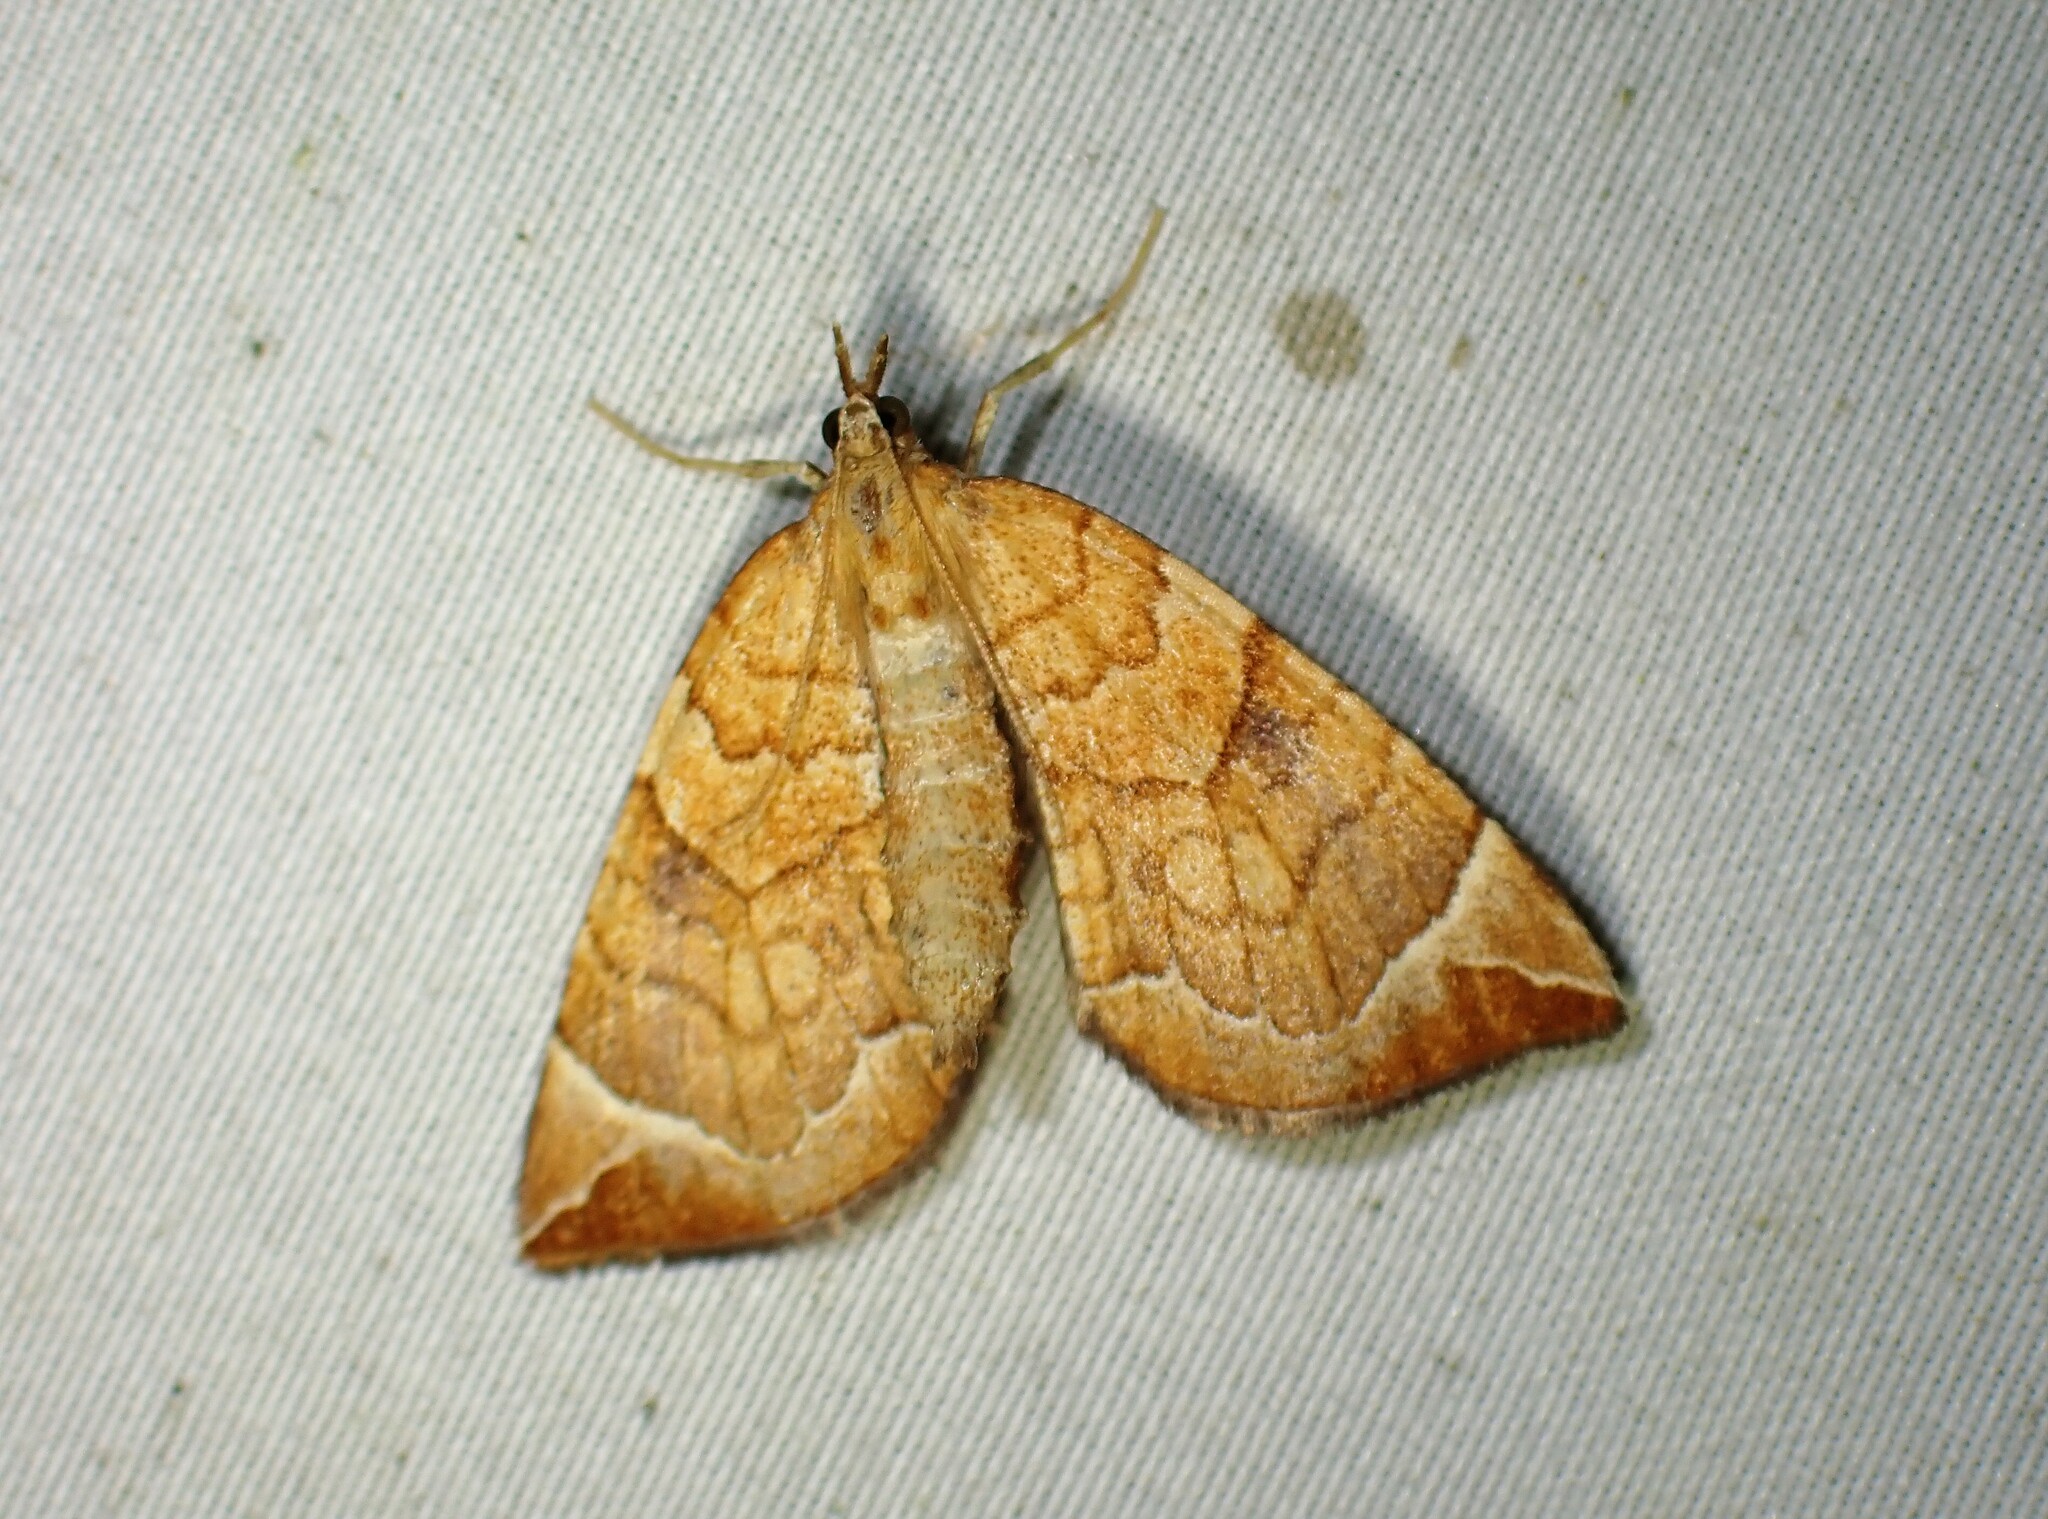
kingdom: Animalia
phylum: Arthropoda
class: Insecta
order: Lepidoptera
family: Geometridae
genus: Eulithis
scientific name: Eulithis testata
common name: Chevron
